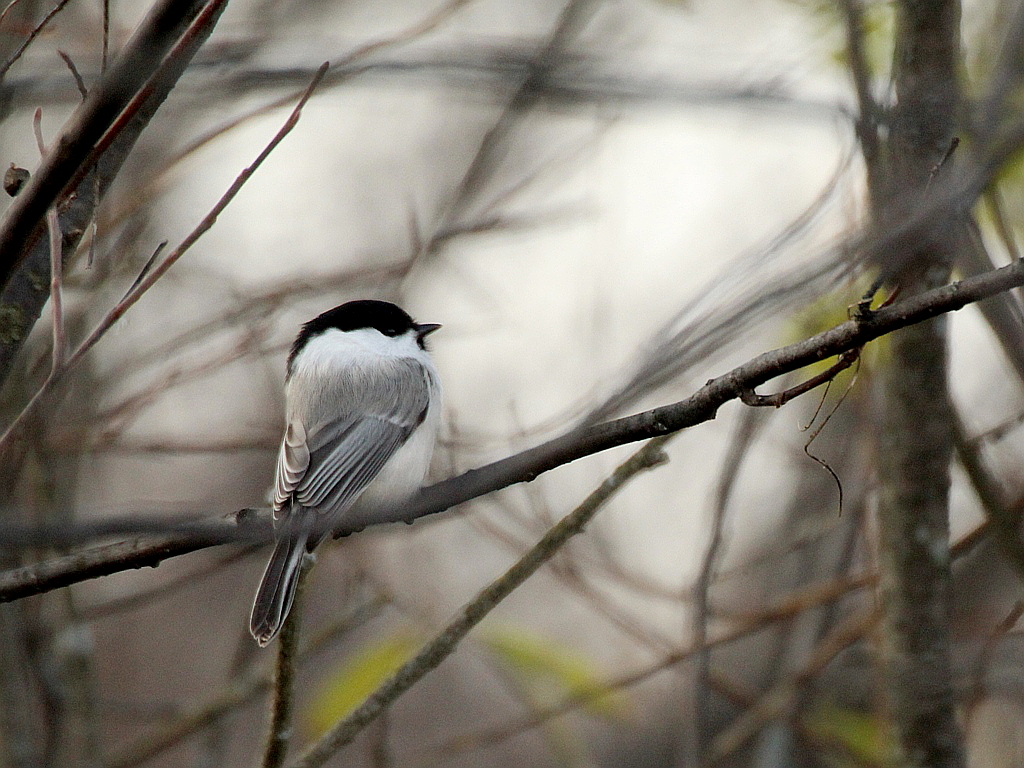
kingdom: Animalia
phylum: Chordata
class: Aves
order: Passeriformes
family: Paridae
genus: Poecile
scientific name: Poecile montanus
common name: Willow tit
